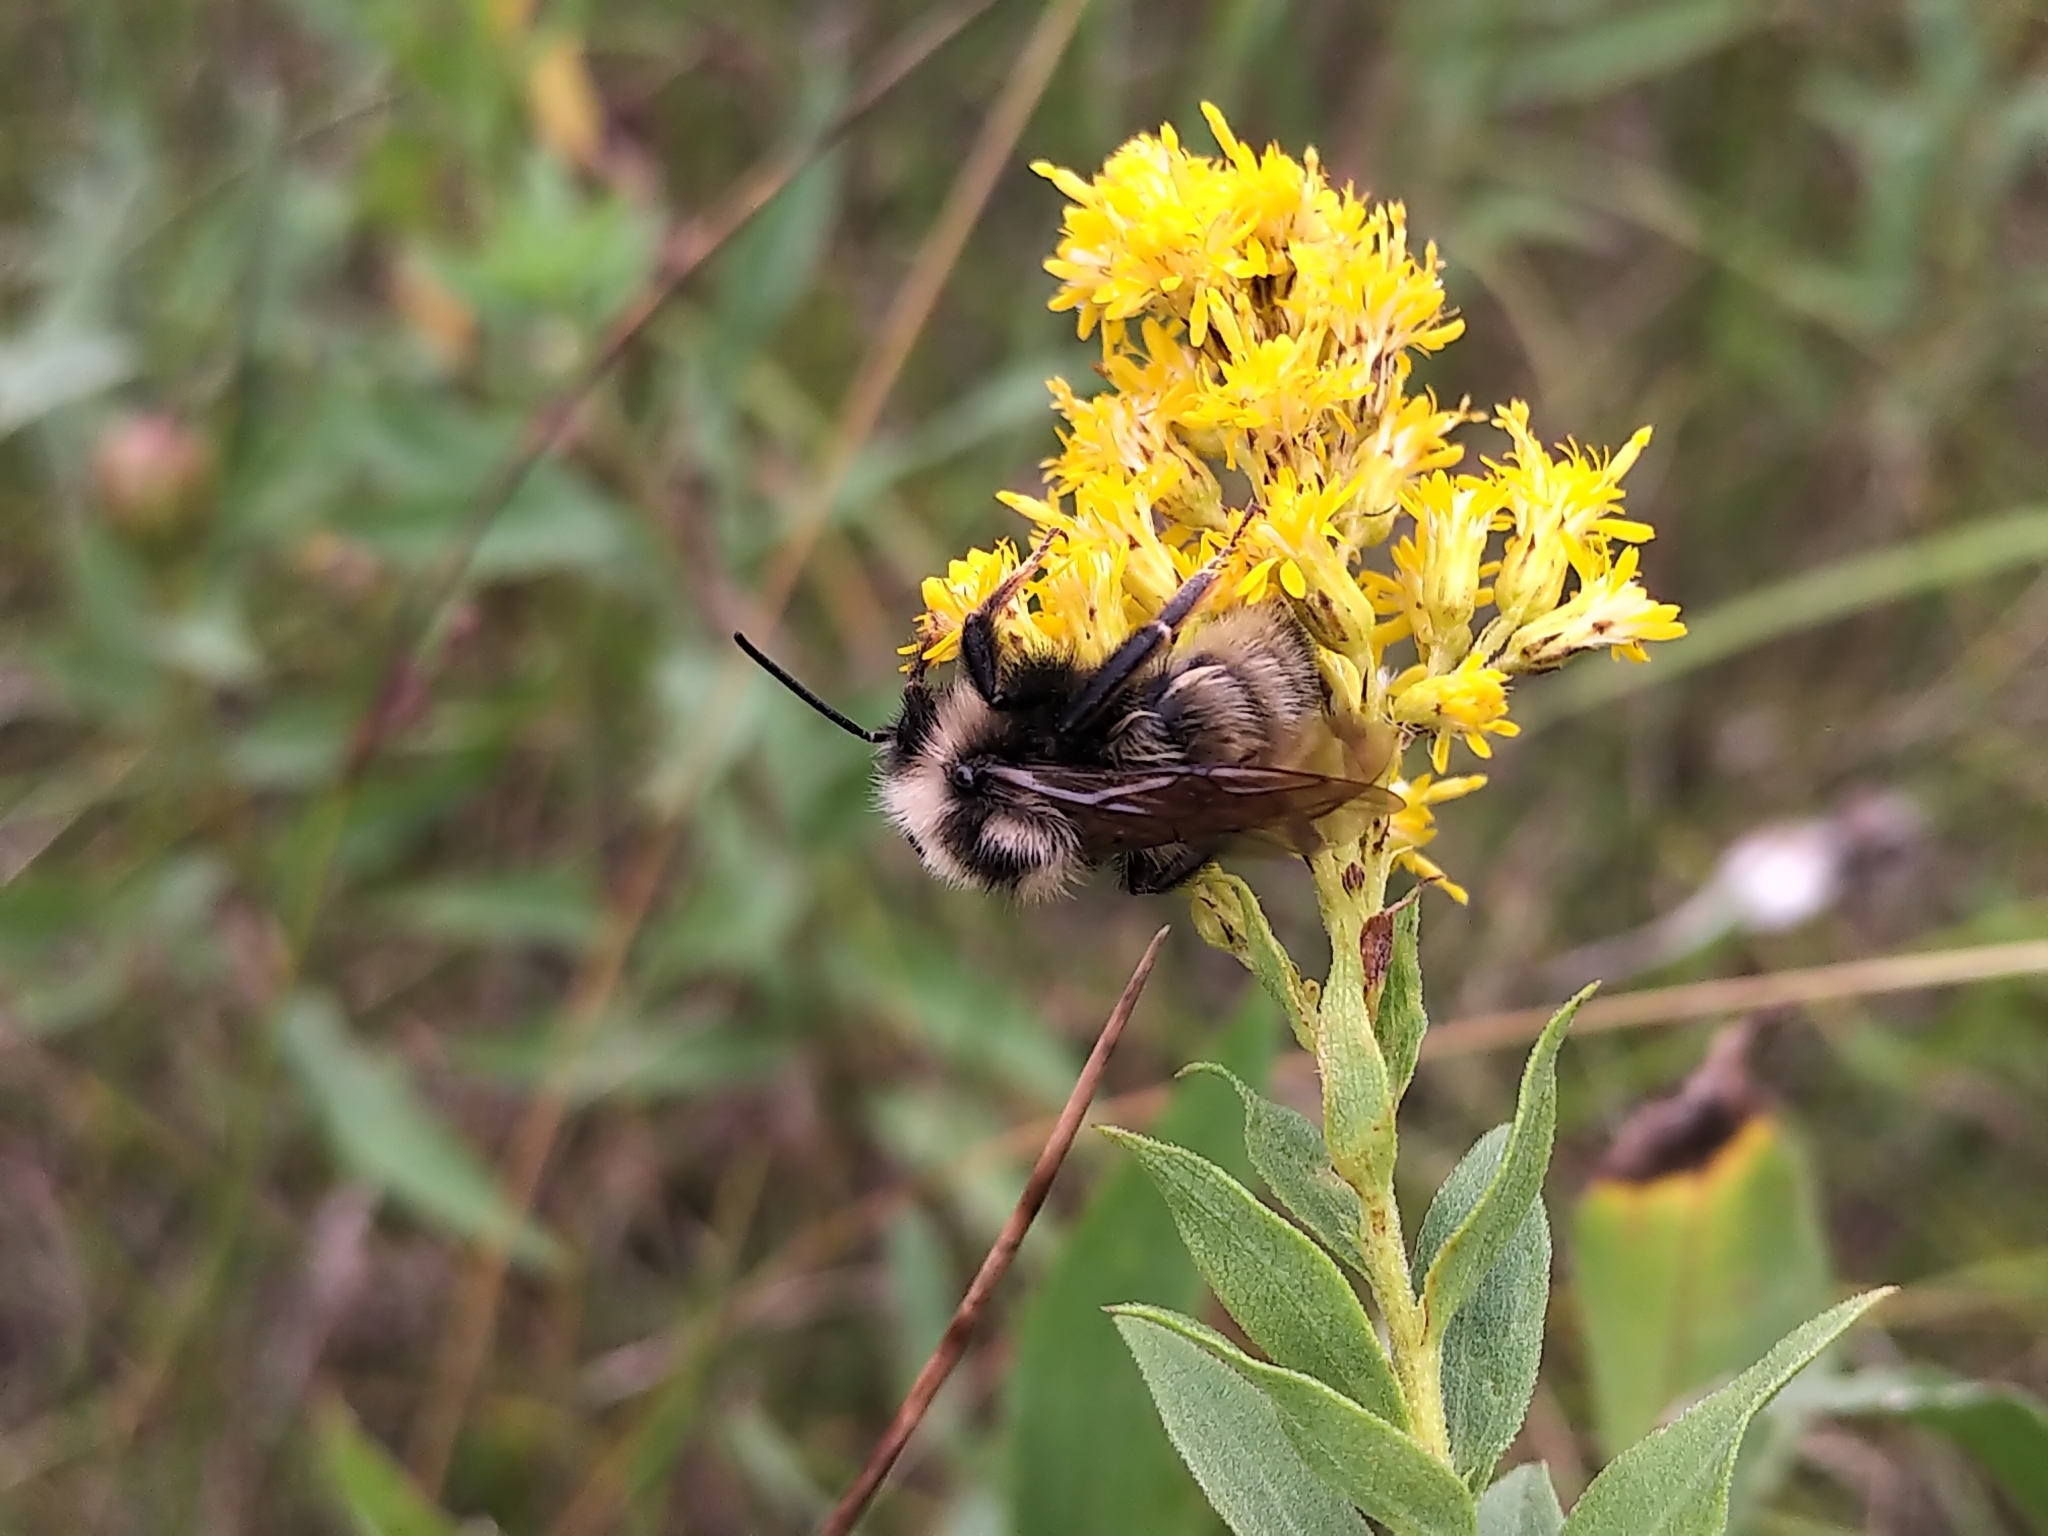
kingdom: Animalia
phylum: Arthropoda
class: Insecta
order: Hymenoptera
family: Apidae
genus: Bombus
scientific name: Bombus flavidus
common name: Fernald cuckoo bumble bee
